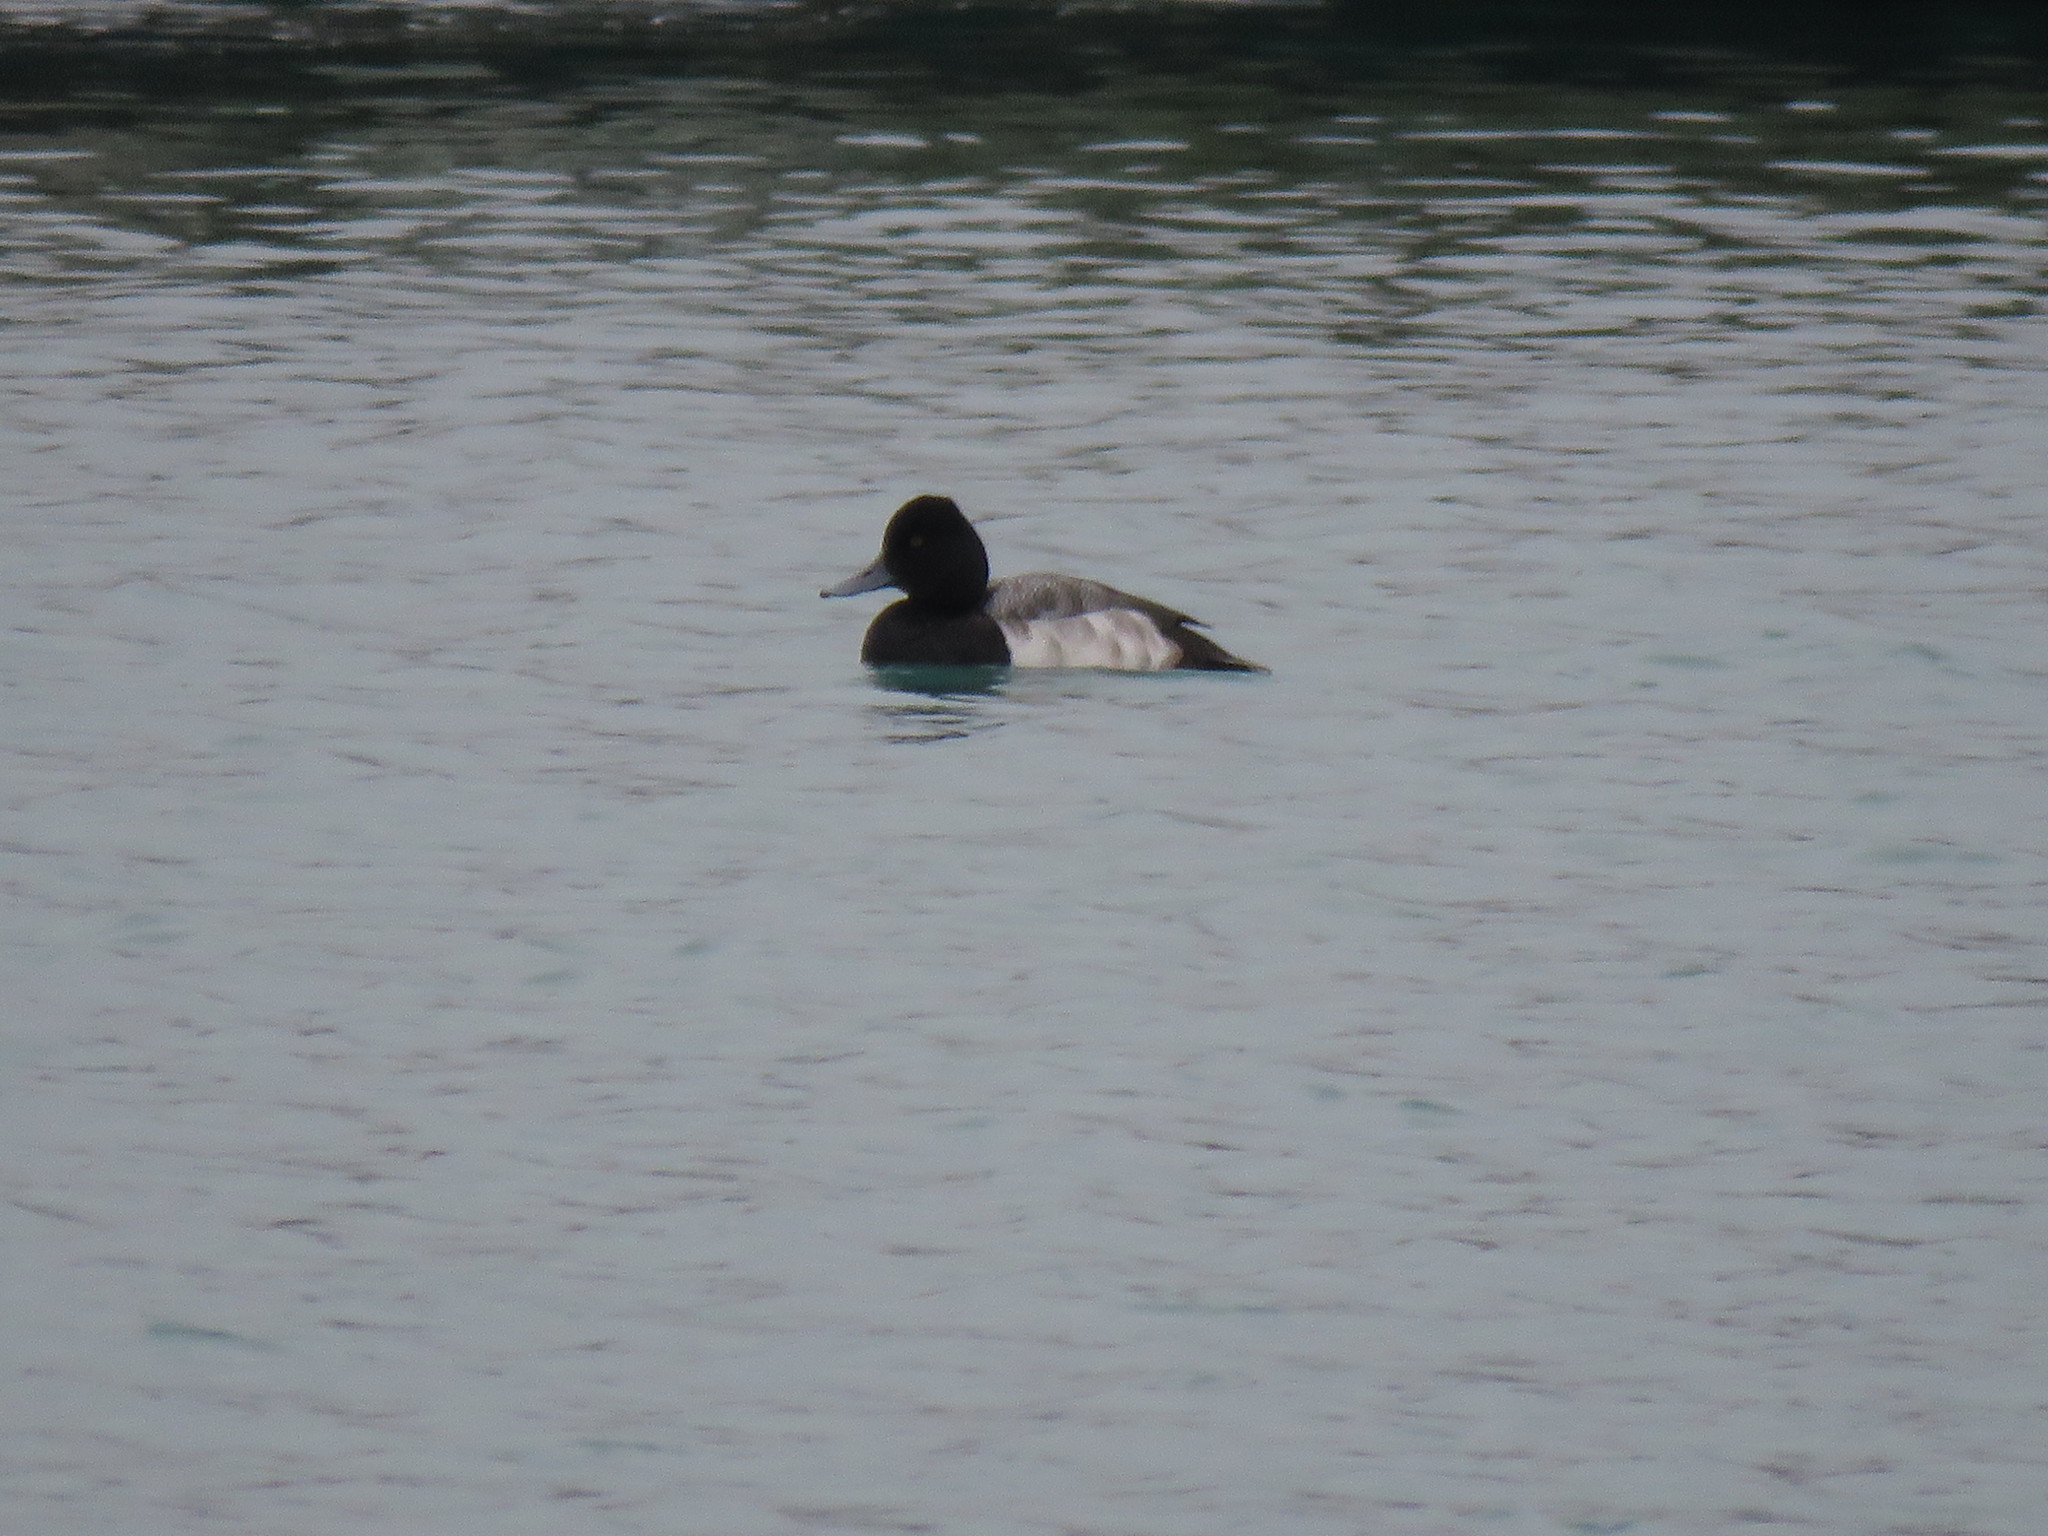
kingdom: Animalia
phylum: Chordata
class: Aves
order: Anseriformes
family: Anatidae
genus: Aythya
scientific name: Aythya affinis
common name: Lesser scaup
